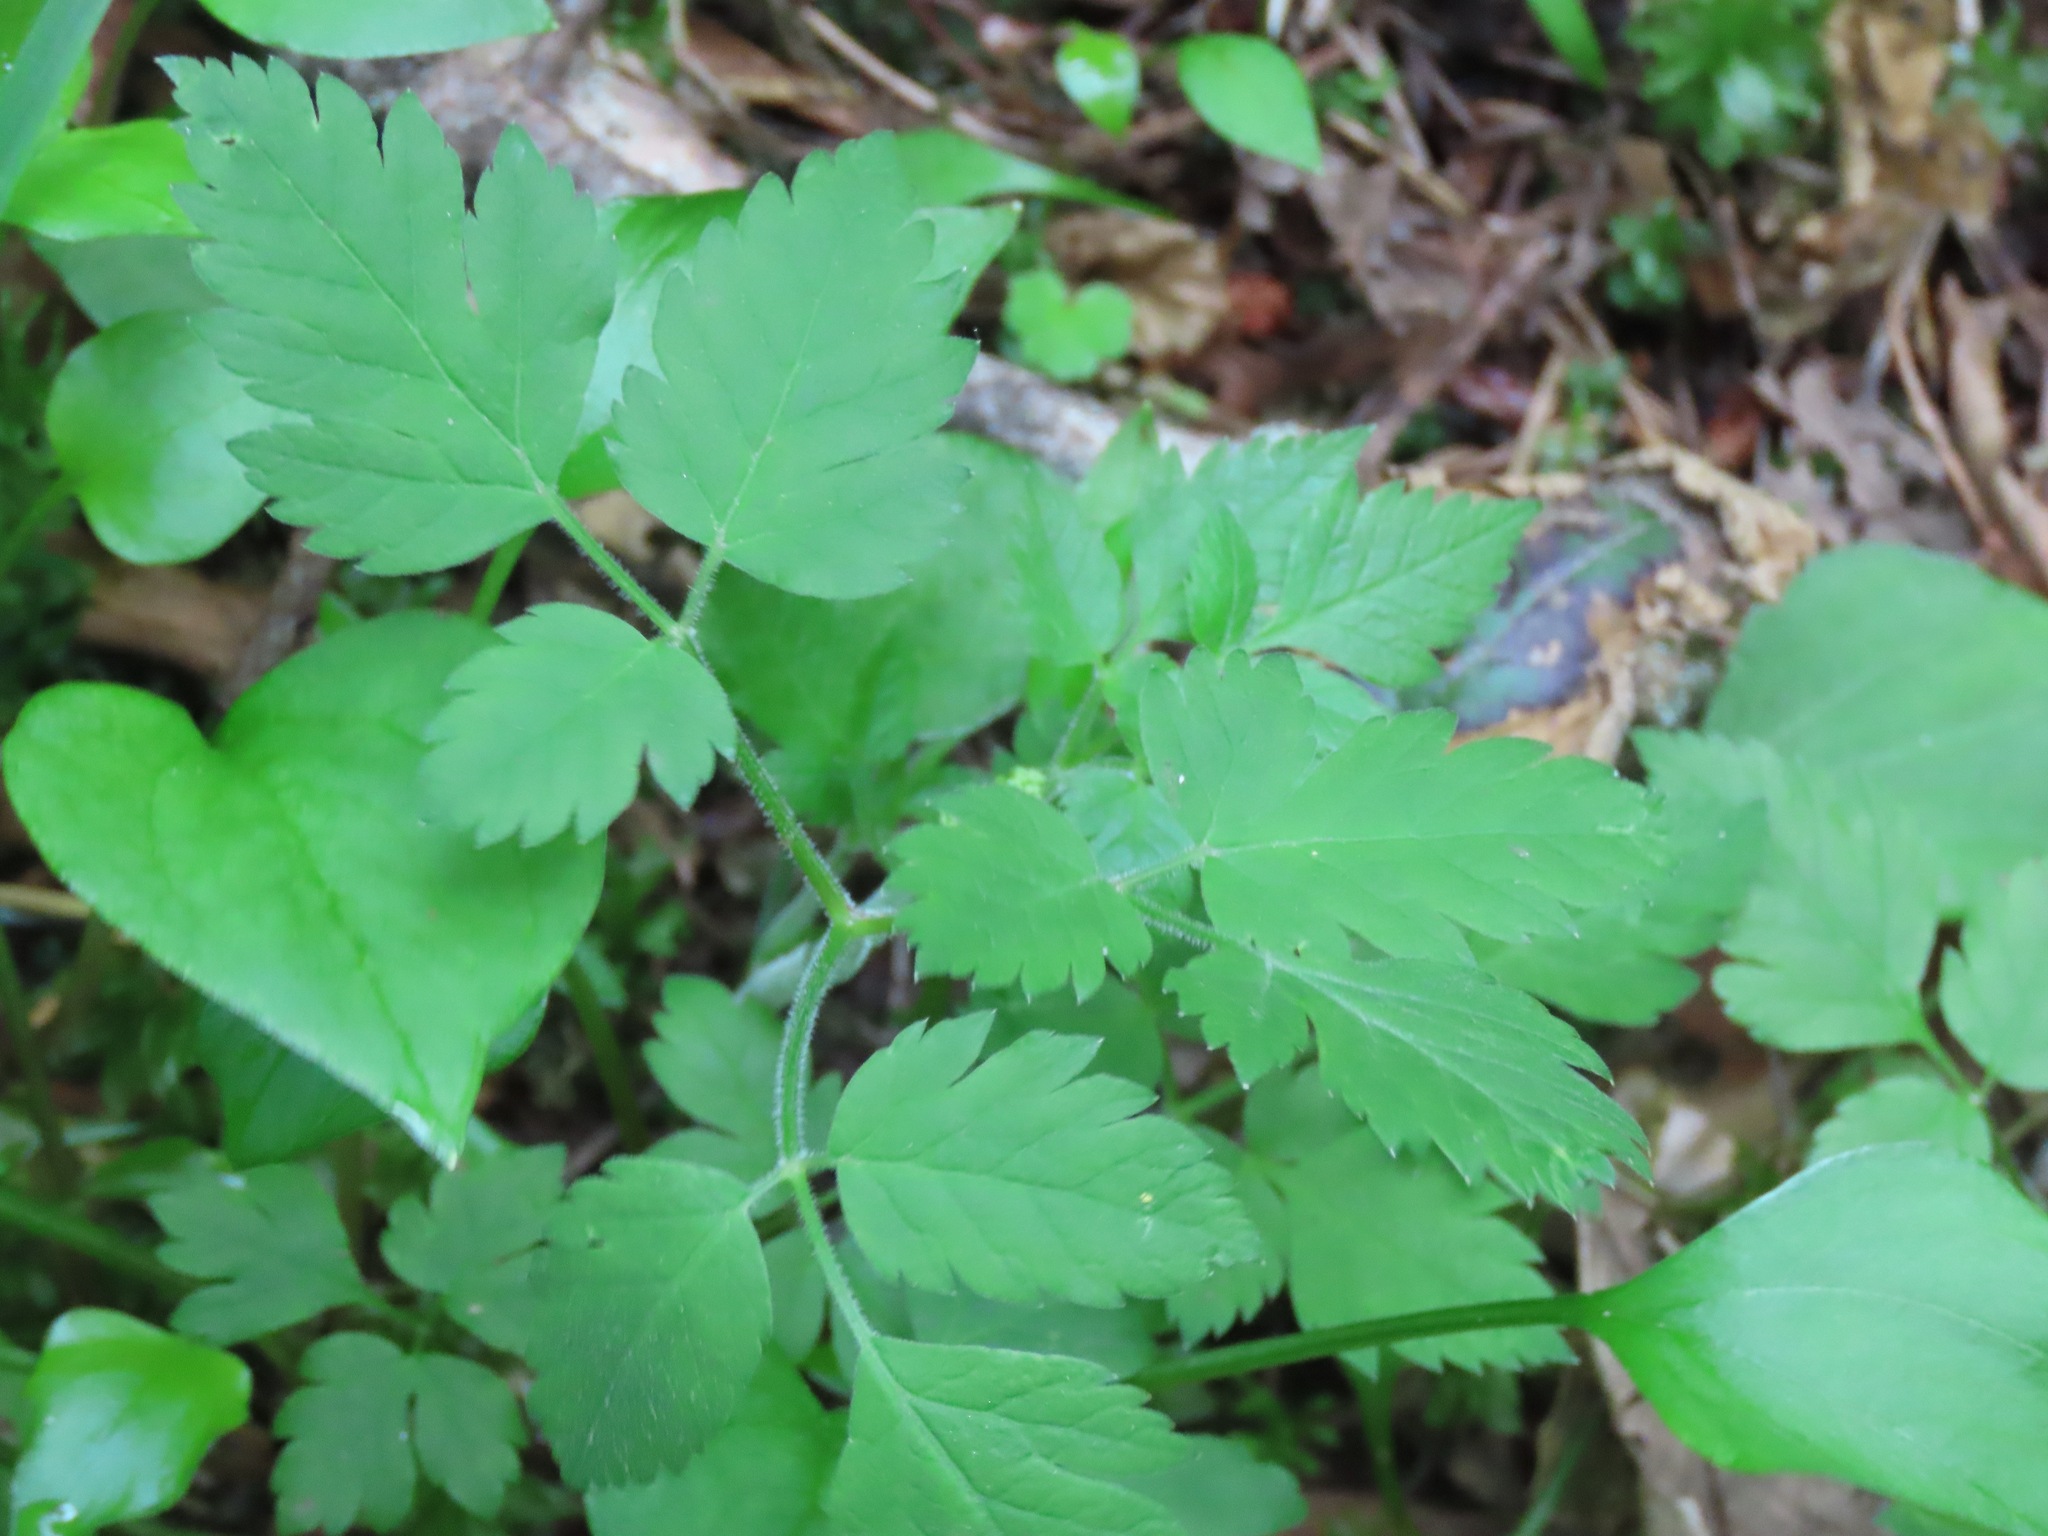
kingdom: Plantae
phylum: Tracheophyta
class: Magnoliopsida
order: Apiales
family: Apiaceae
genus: Osmorhiza
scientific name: Osmorhiza berteroi
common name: Mountain sweet cicely
